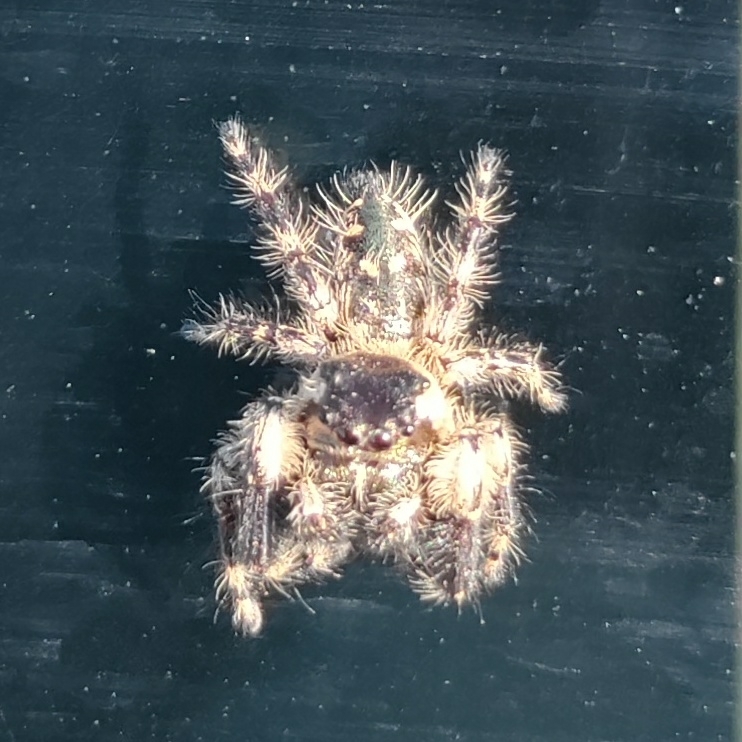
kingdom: Animalia
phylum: Arthropoda
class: Arachnida
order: Araneae
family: Salticidae
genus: Phidippus
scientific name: Phidippus otiosus
